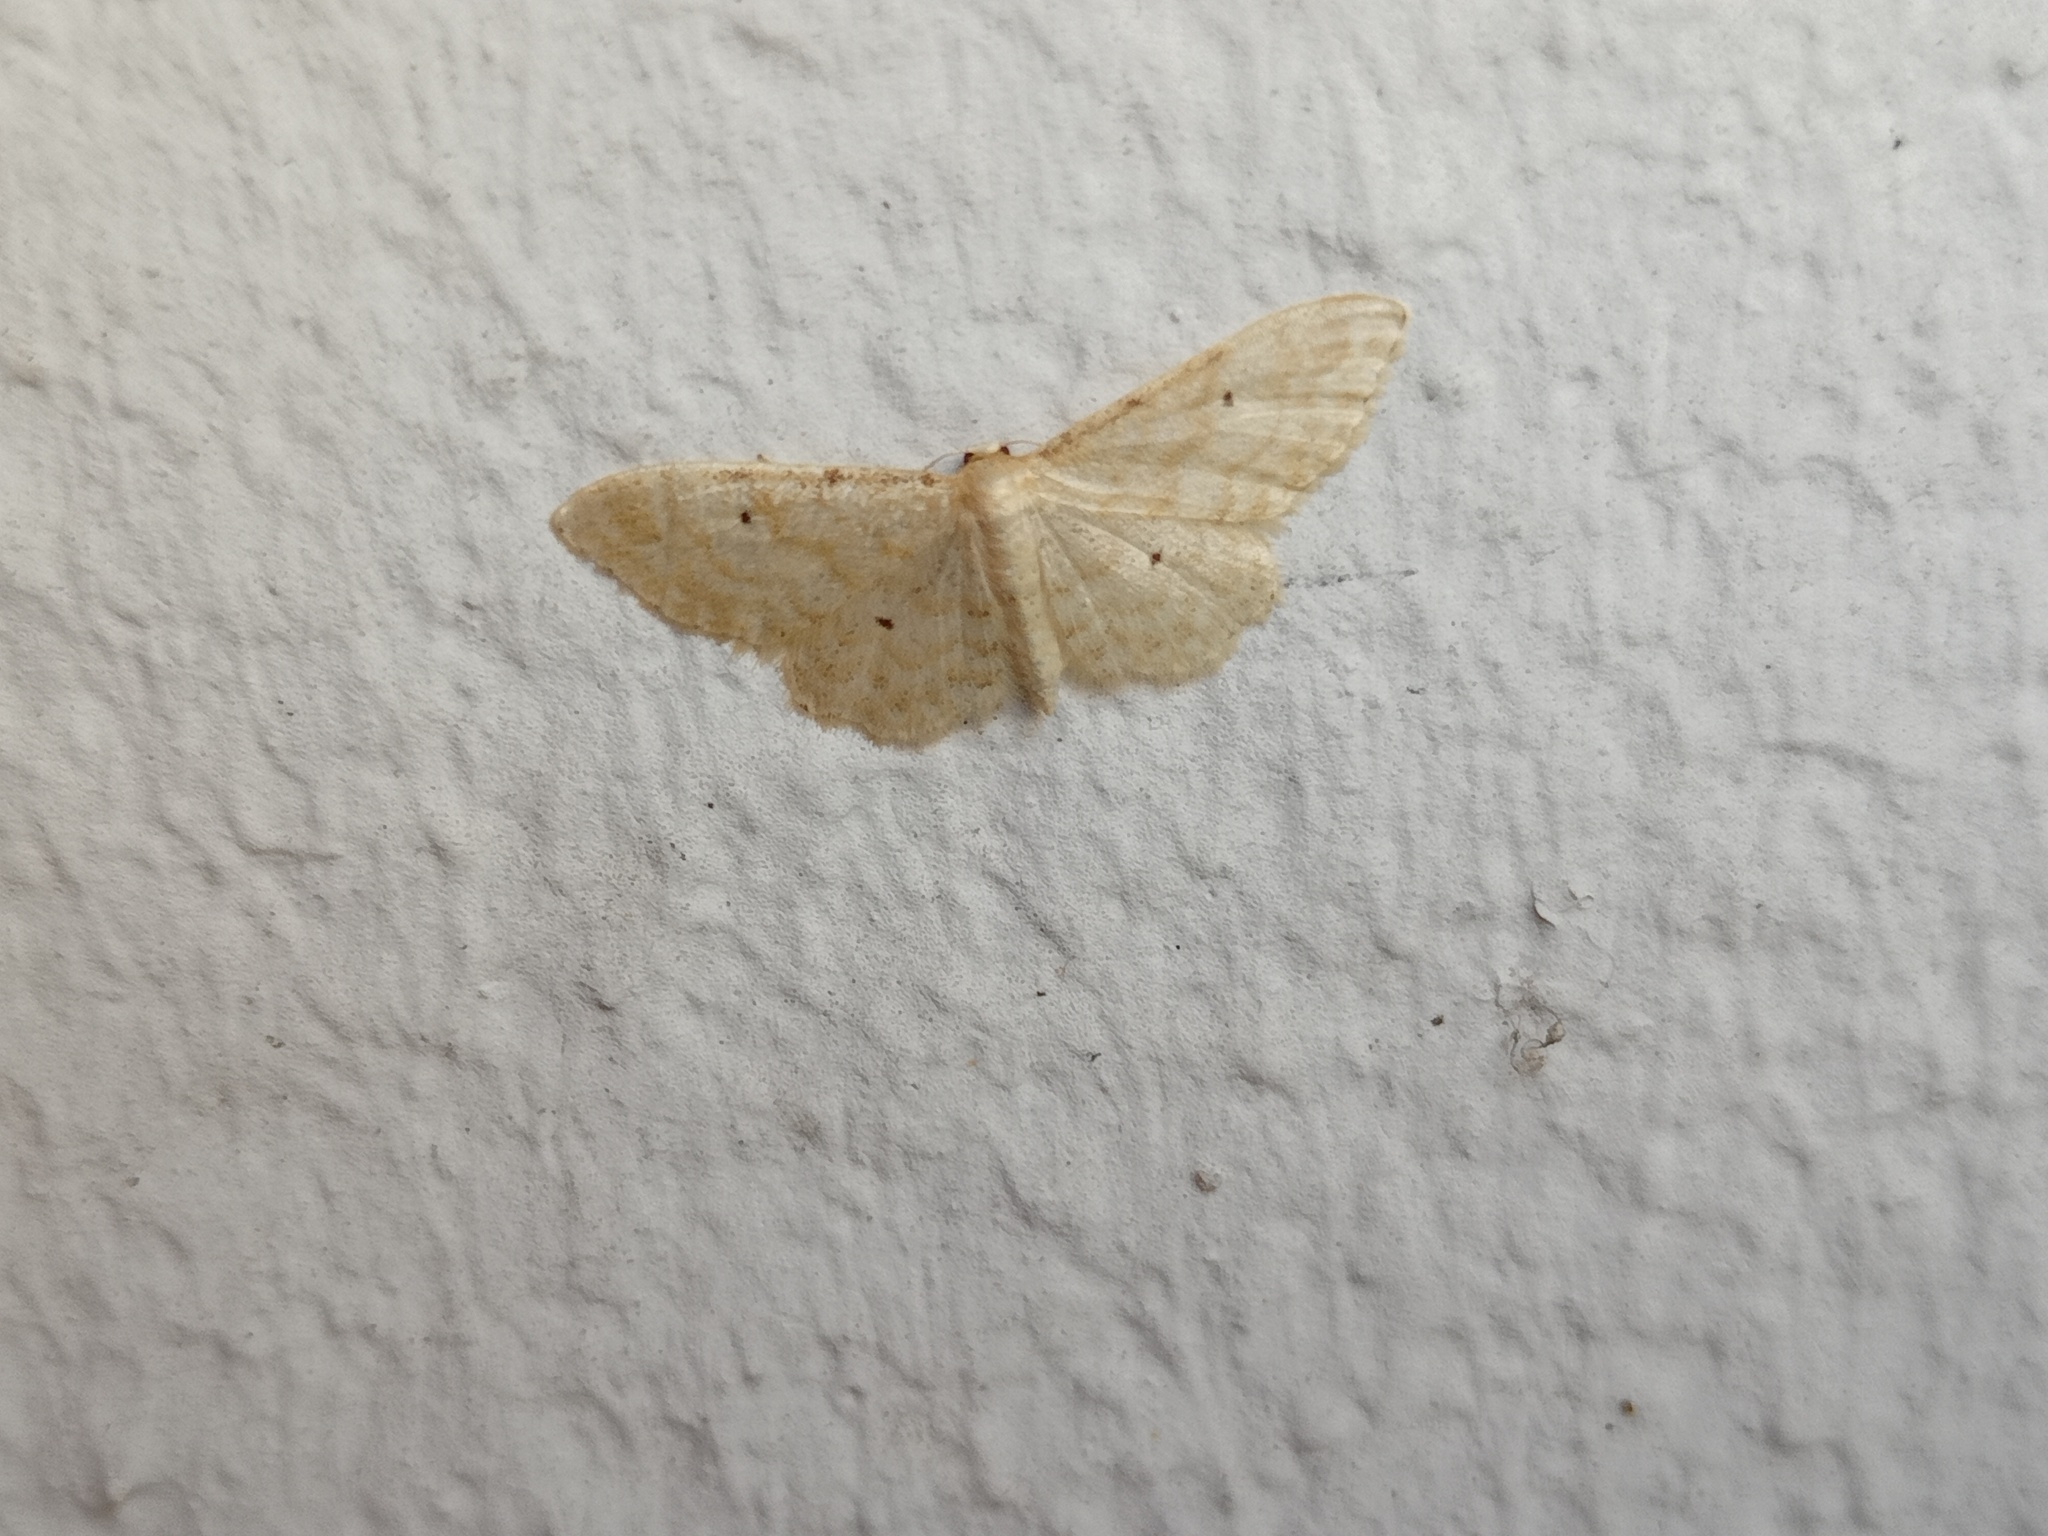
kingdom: Animalia
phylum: Arthropoda
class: Insecta
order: Lepidoptera
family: Geometridae
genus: Idaea
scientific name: Idaea fuscovenosa
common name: Dwarf cream wave
